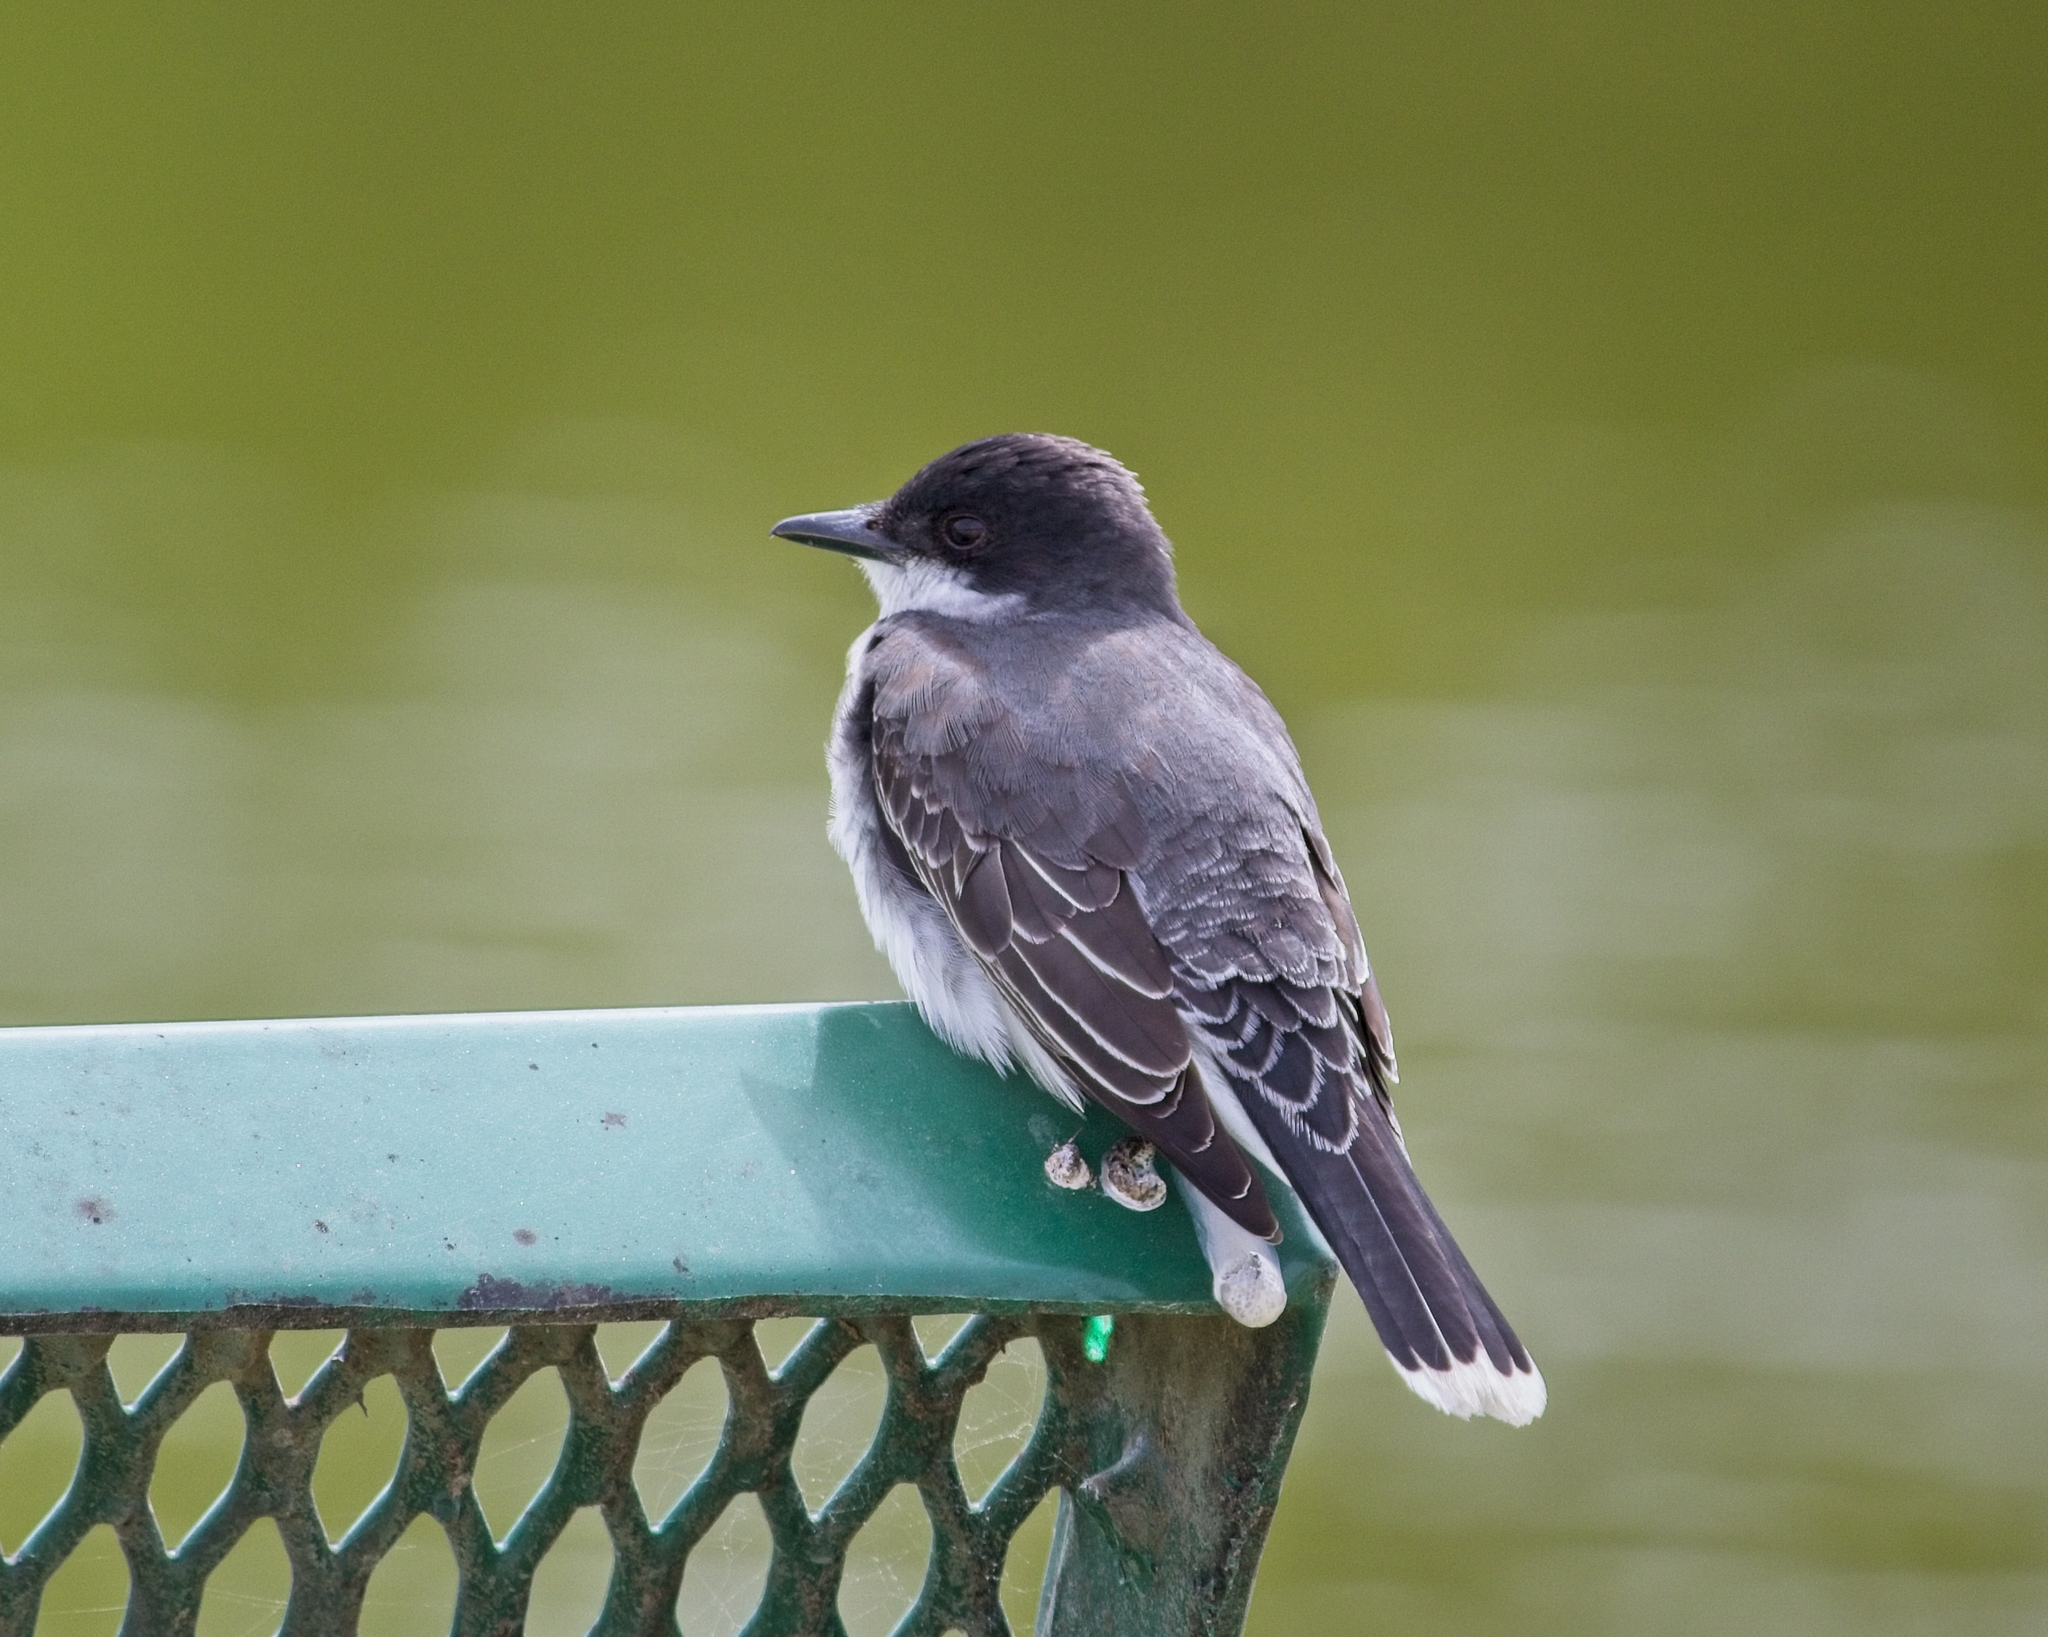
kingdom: Animalia
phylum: Chordata
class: Aves
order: Passeriformes
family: Tyrannidae
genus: Tyrannus
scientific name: Tyrannus tyrannus
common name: Eastern kingbird
